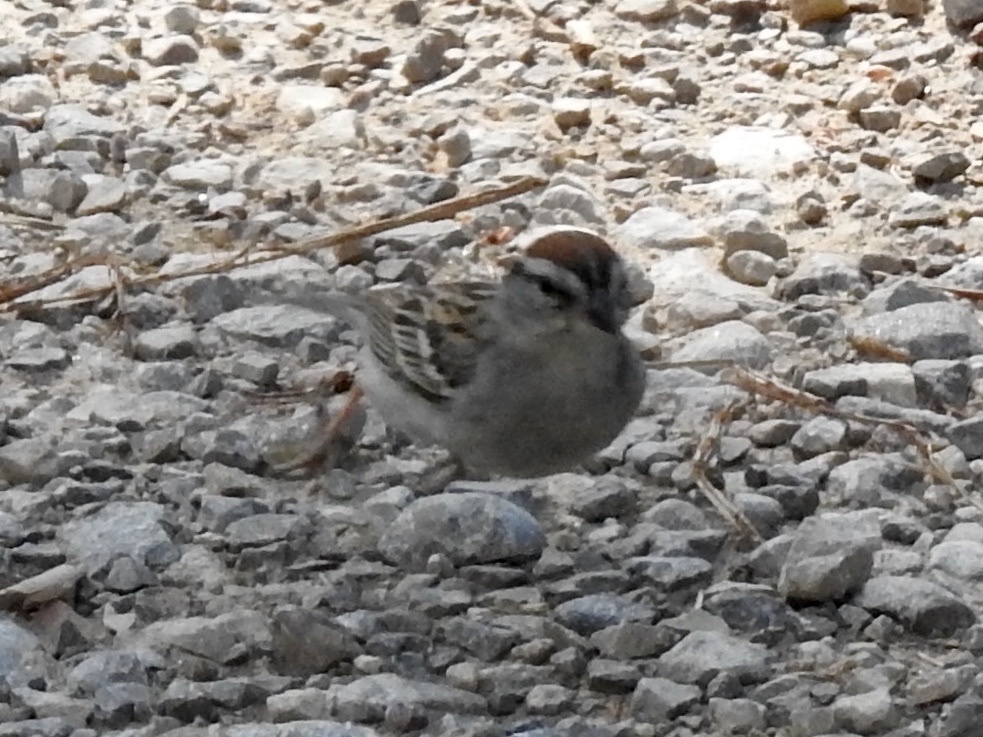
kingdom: Animalia
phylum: Chordata
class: Aves
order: Passeriformes
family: Passerellidae
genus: Spizella
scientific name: Spizella passerina
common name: Chipping sparrow
